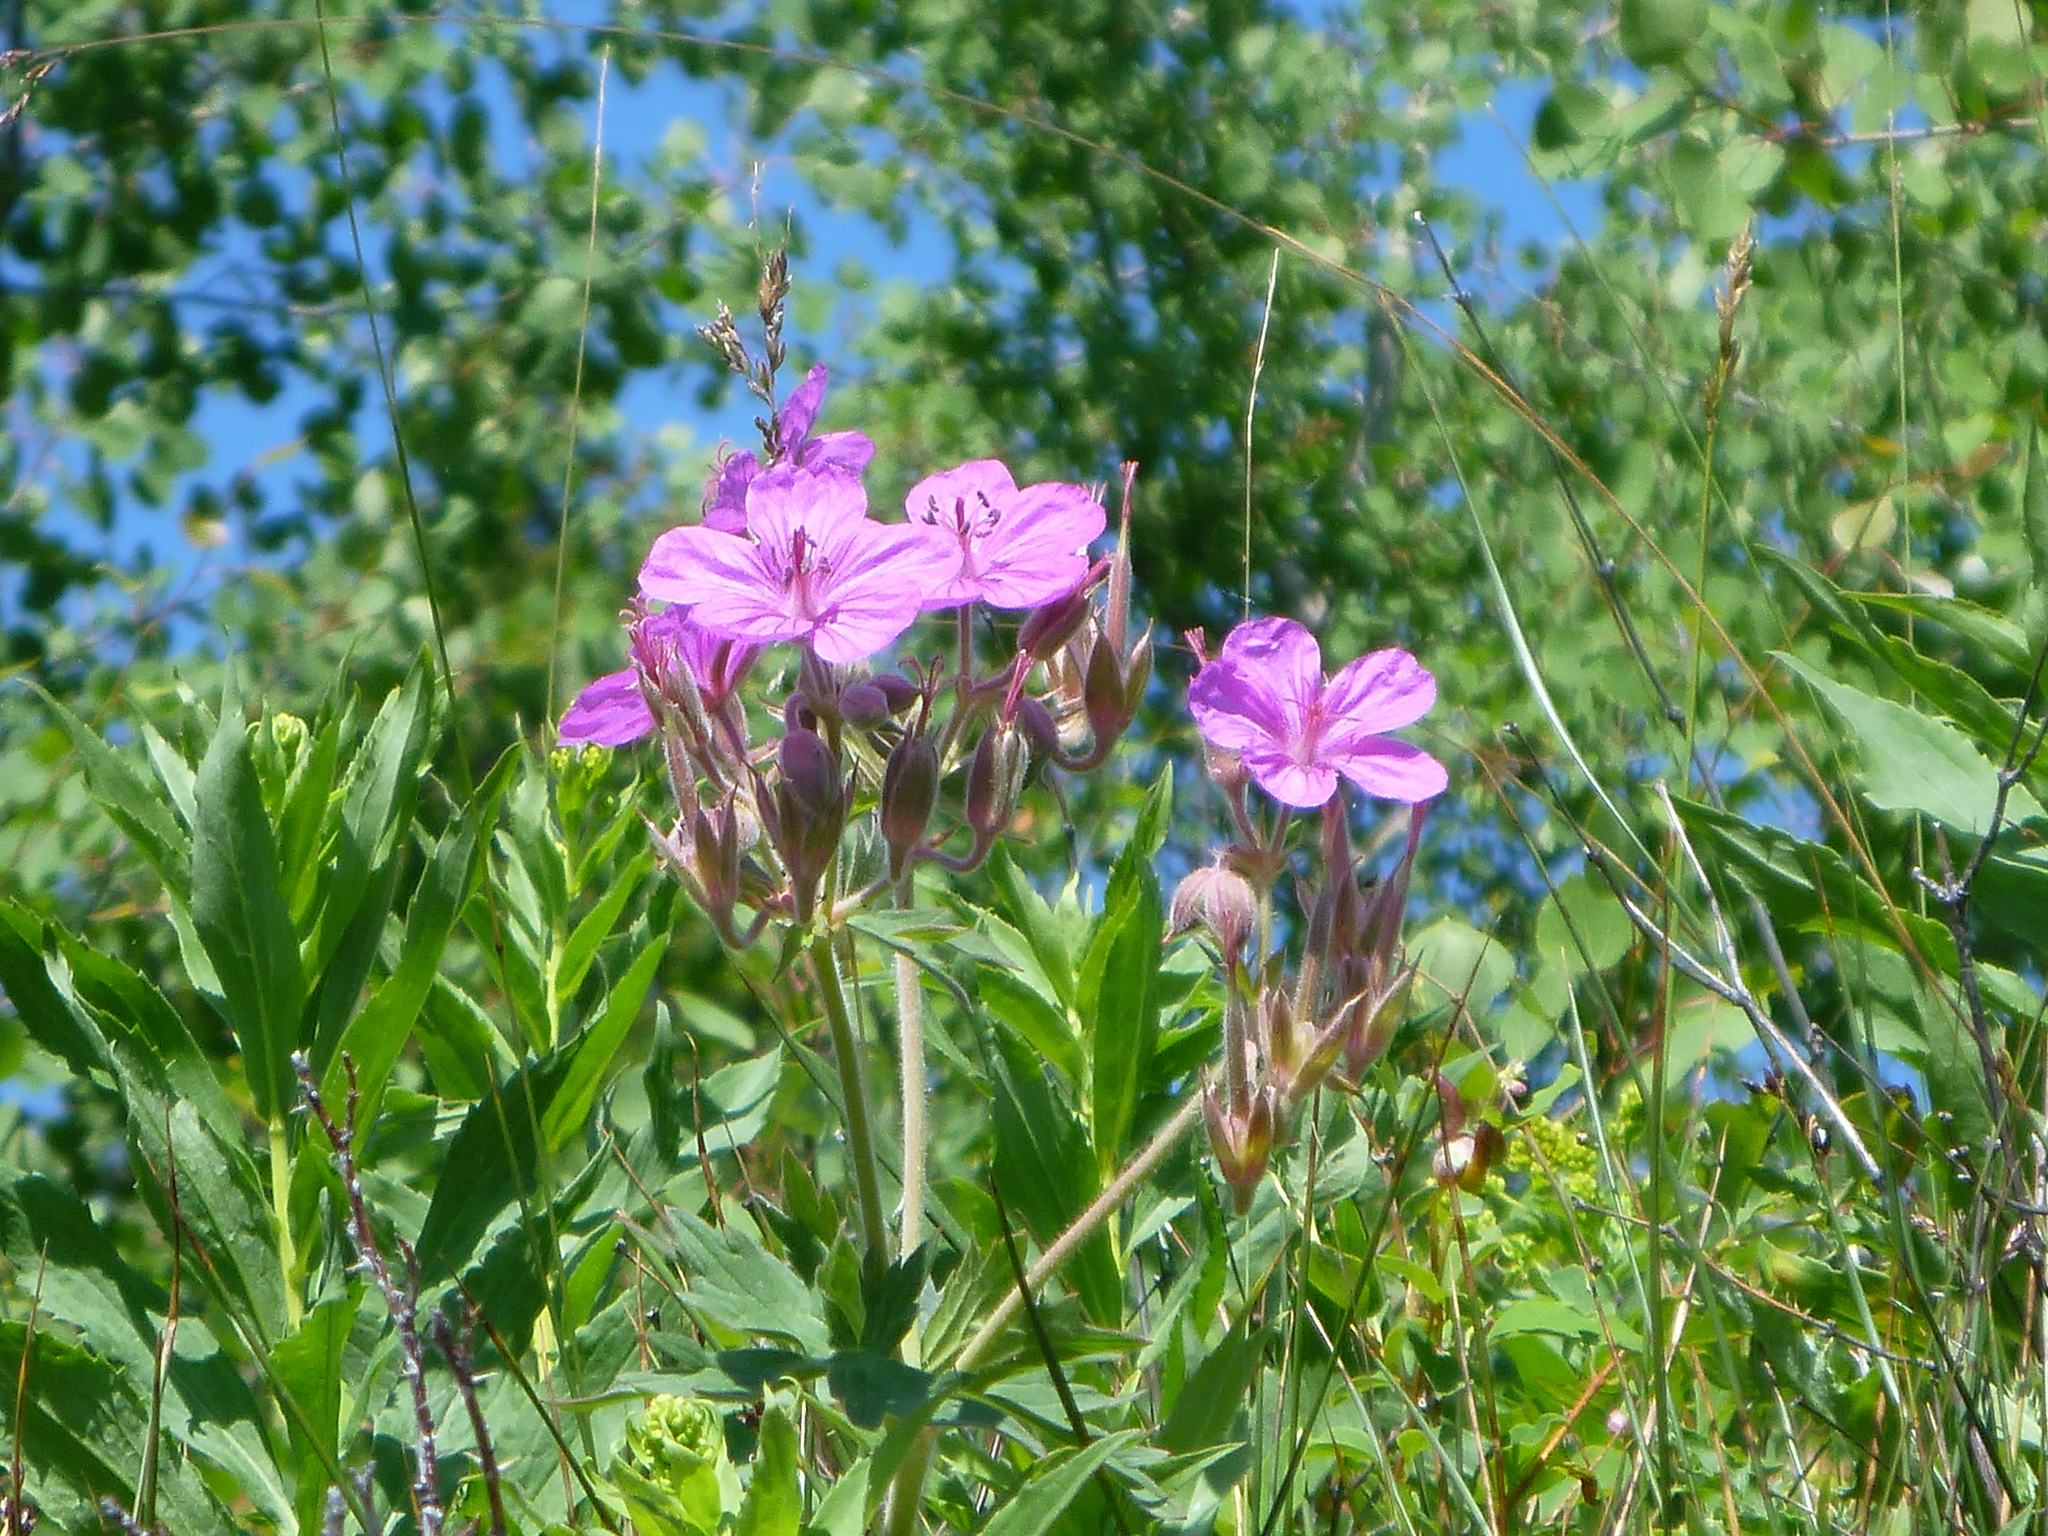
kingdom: Plantae
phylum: Tracheophyta
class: Magnoliopsida
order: Geraniales
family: Geraniaceae
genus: Geranium
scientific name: Geranium viscosissimum
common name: Purple geranium
